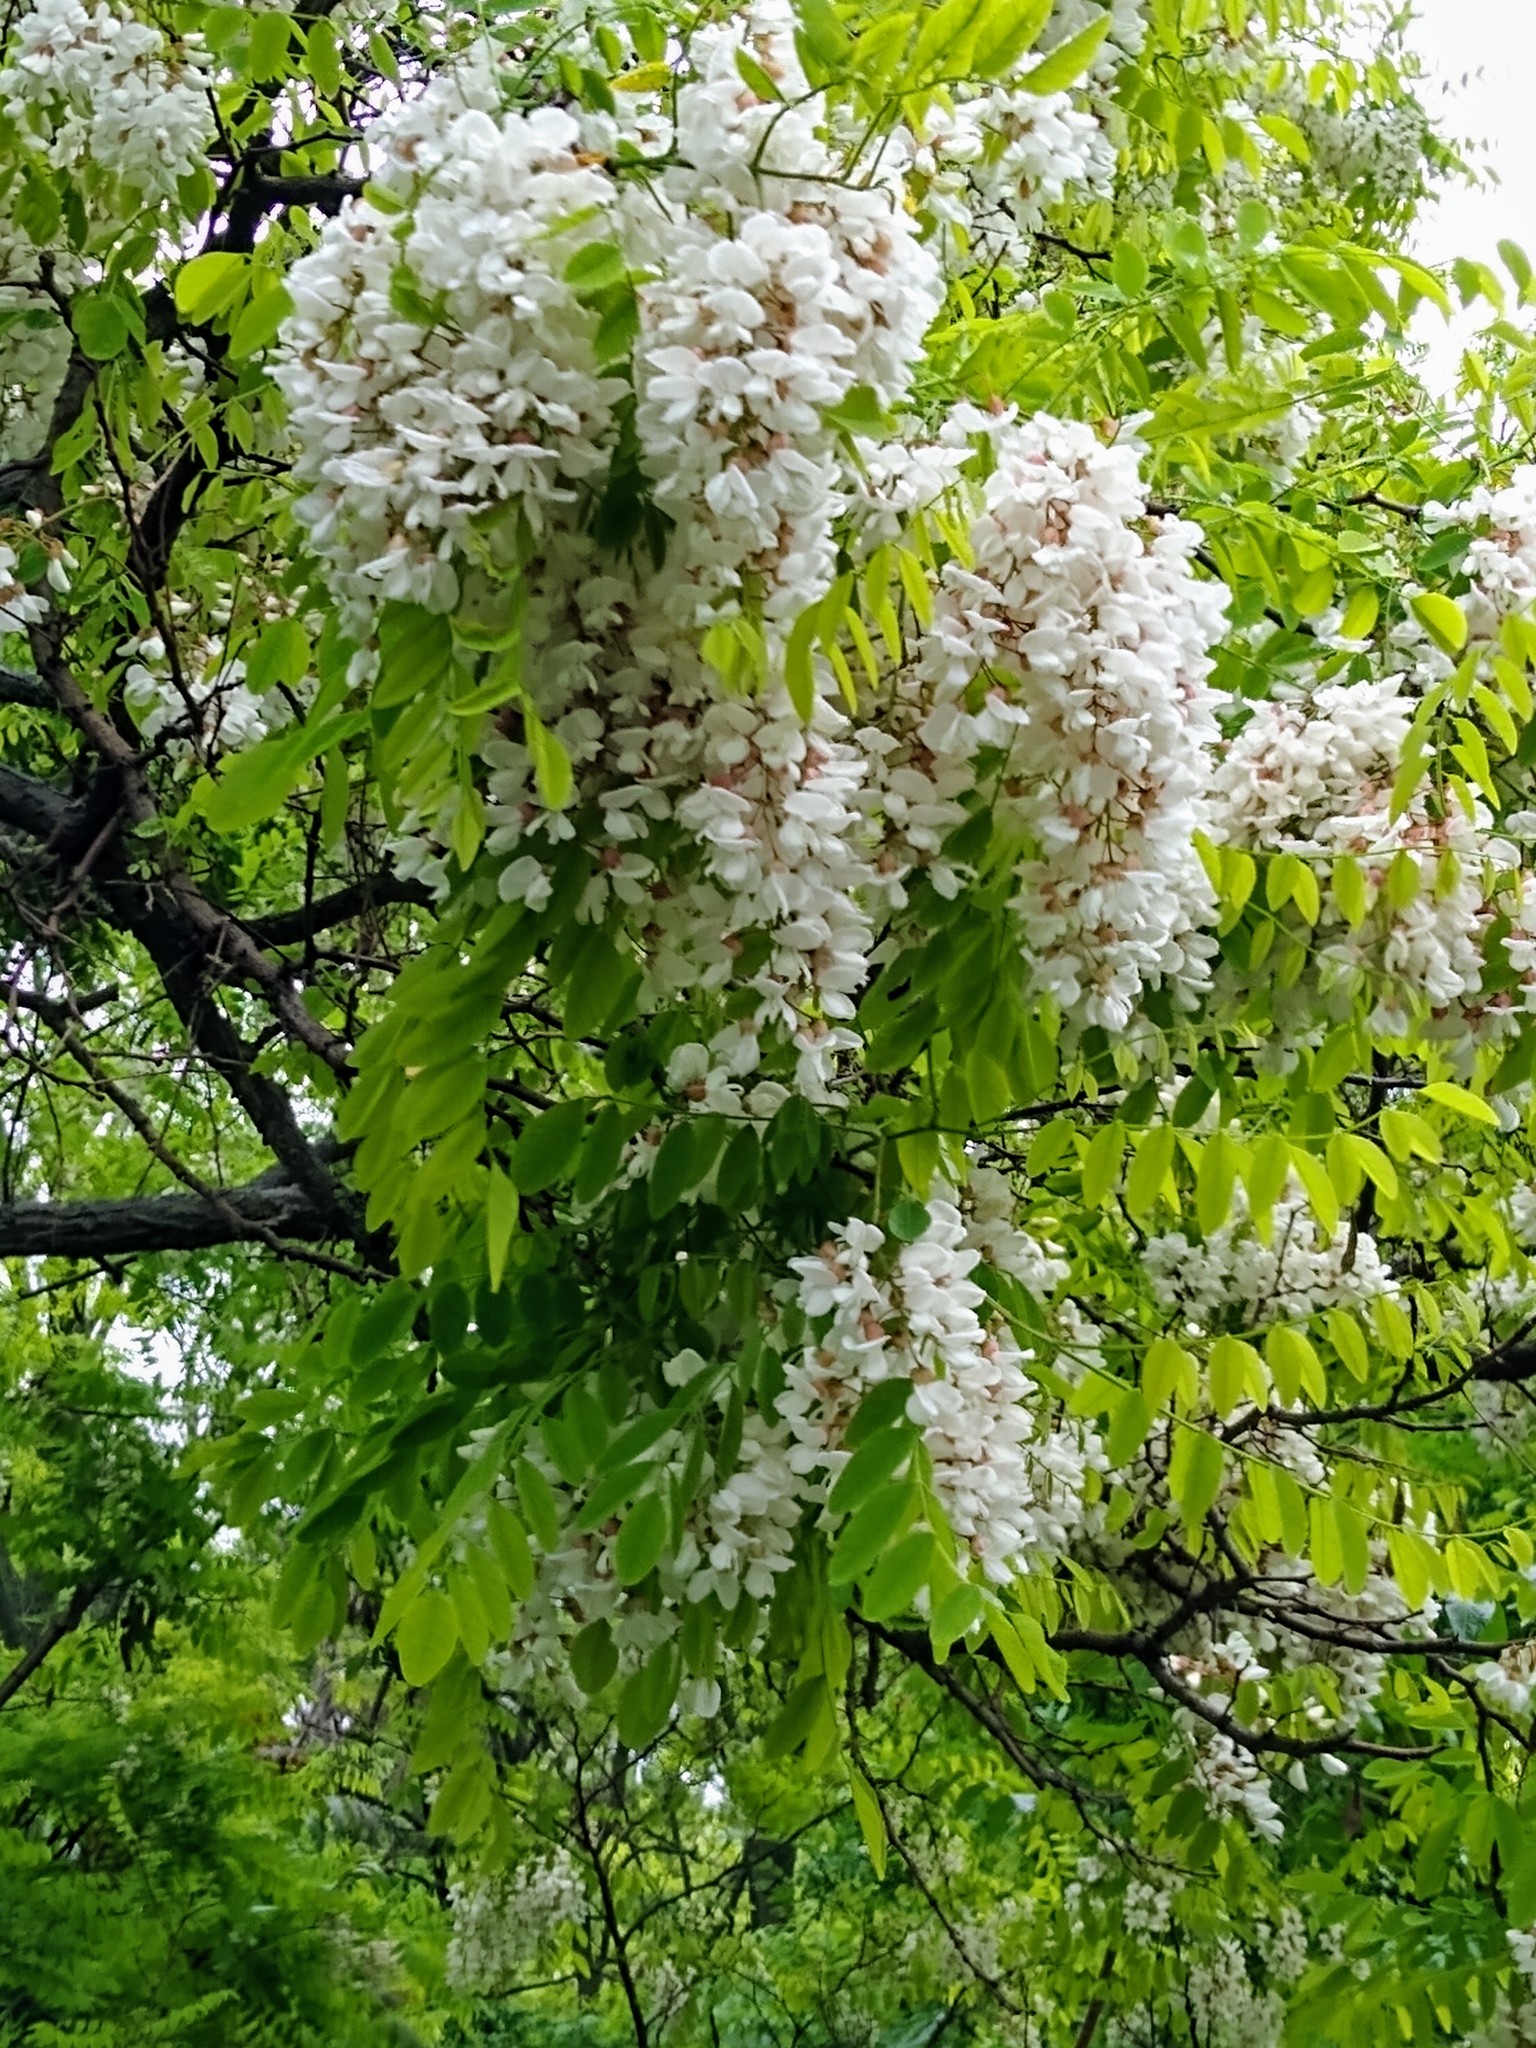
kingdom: Plantae
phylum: Tracheophyta
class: Magnoliopsida
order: Fabales
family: Fabaceae
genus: Robinia
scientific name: Robinia pseudoacacia
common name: Black locust
